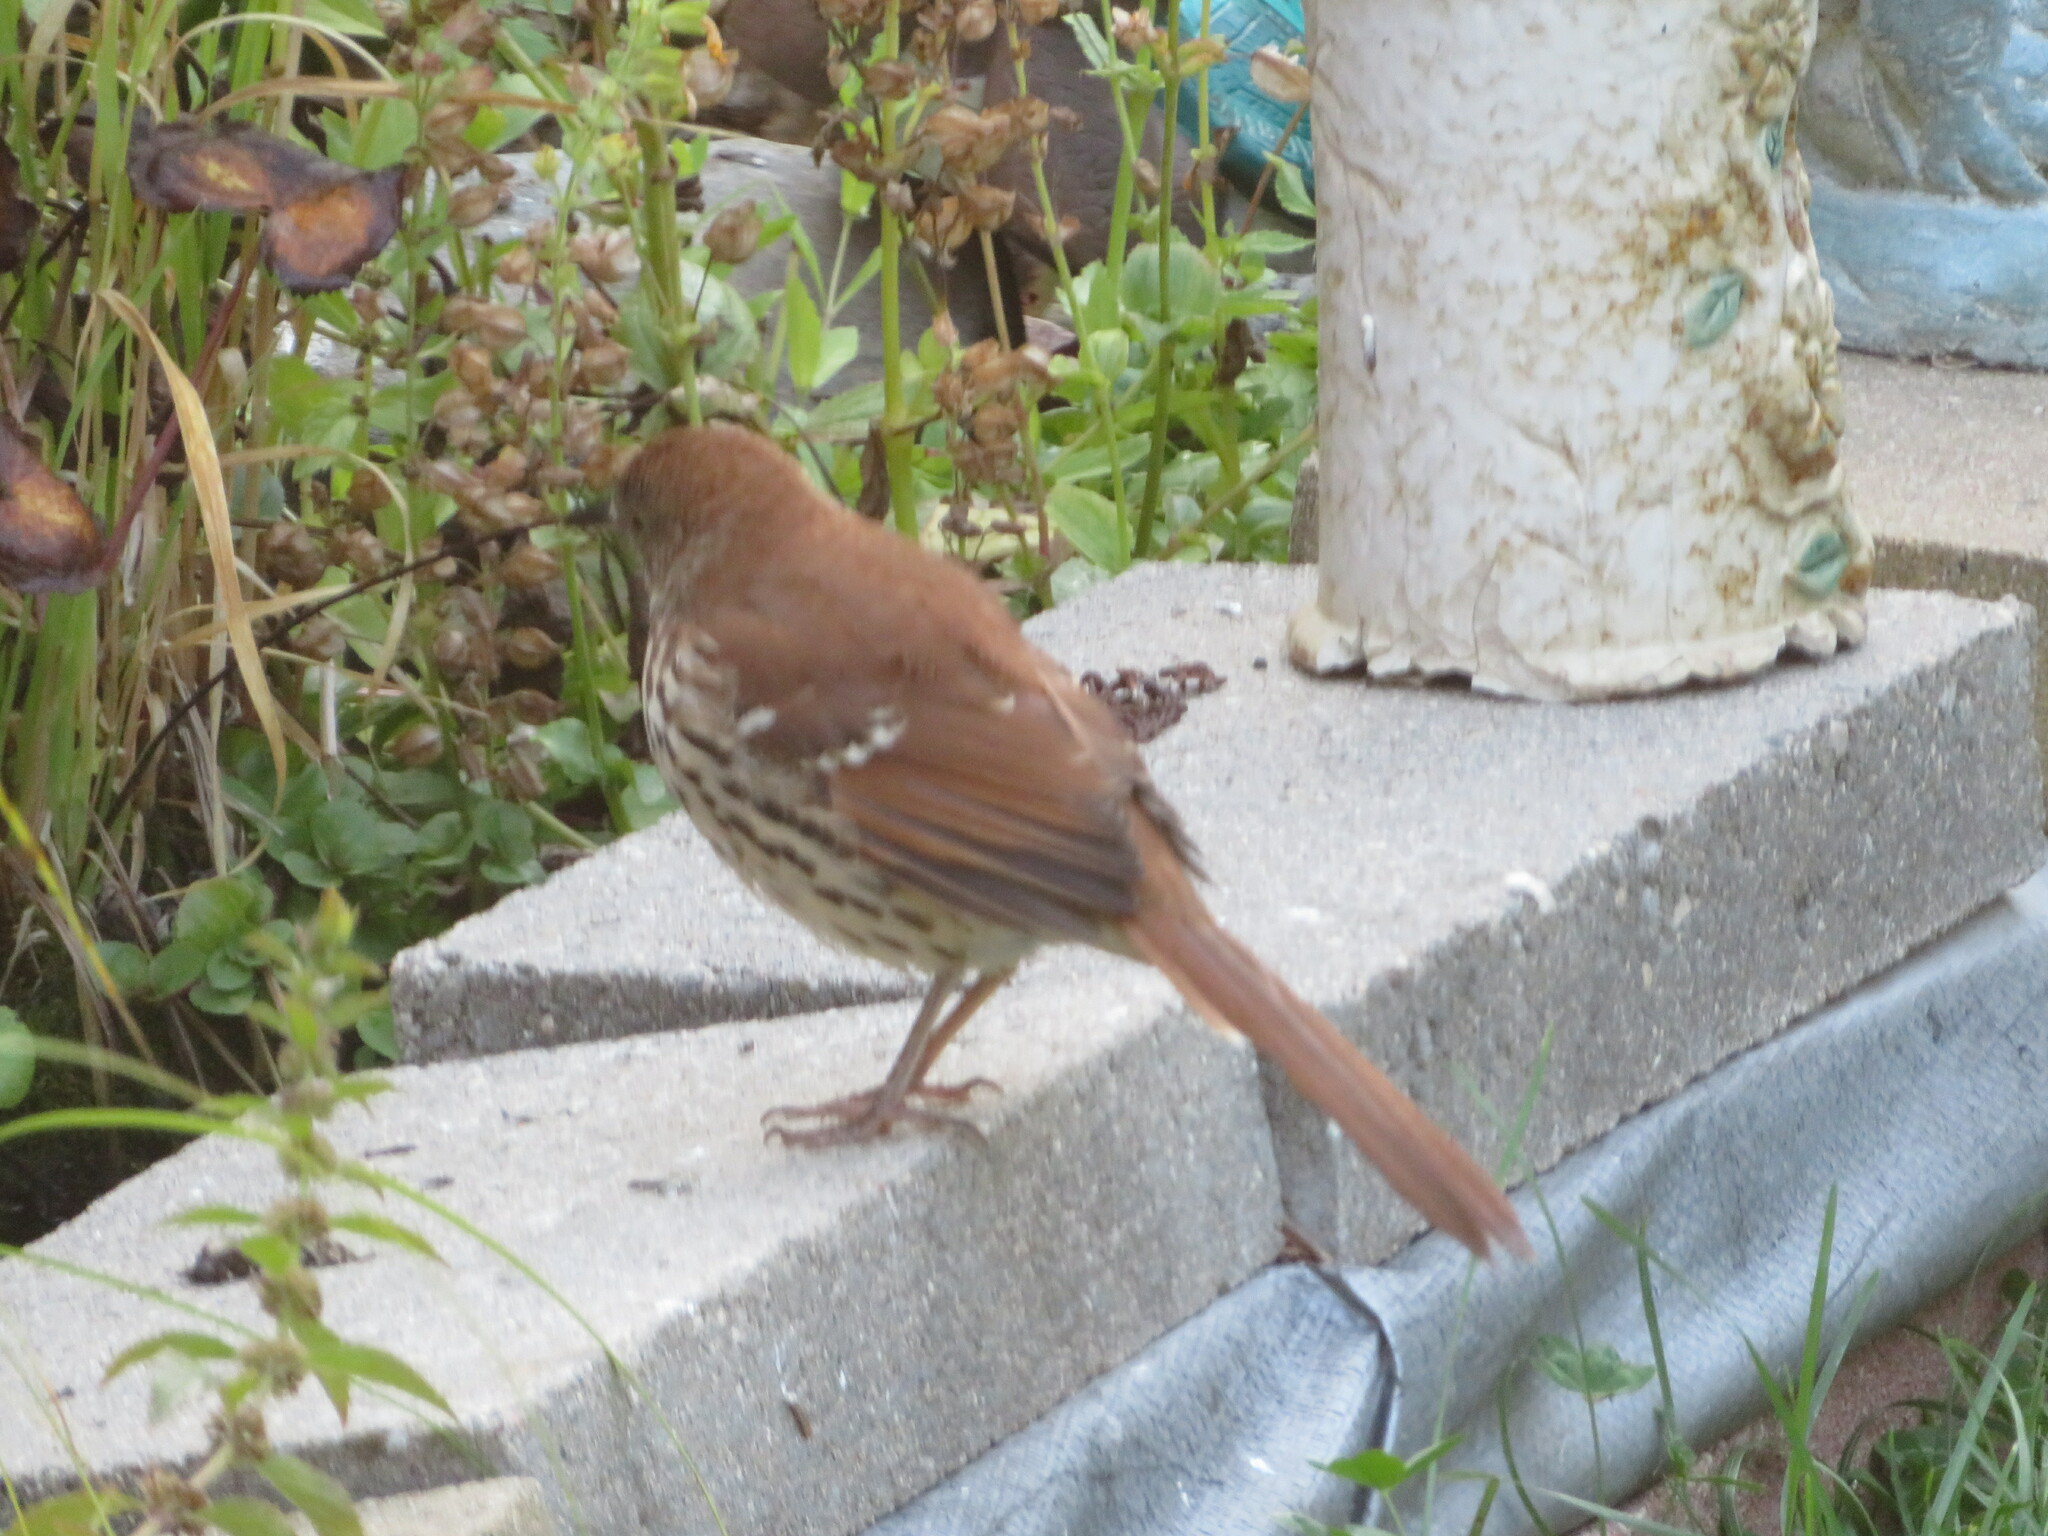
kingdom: Animalia
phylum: Chordata
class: Aves
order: Passeriformes
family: Mimidae
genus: Toxostoma
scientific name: Toxostoma rufum
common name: Brown thrasher
